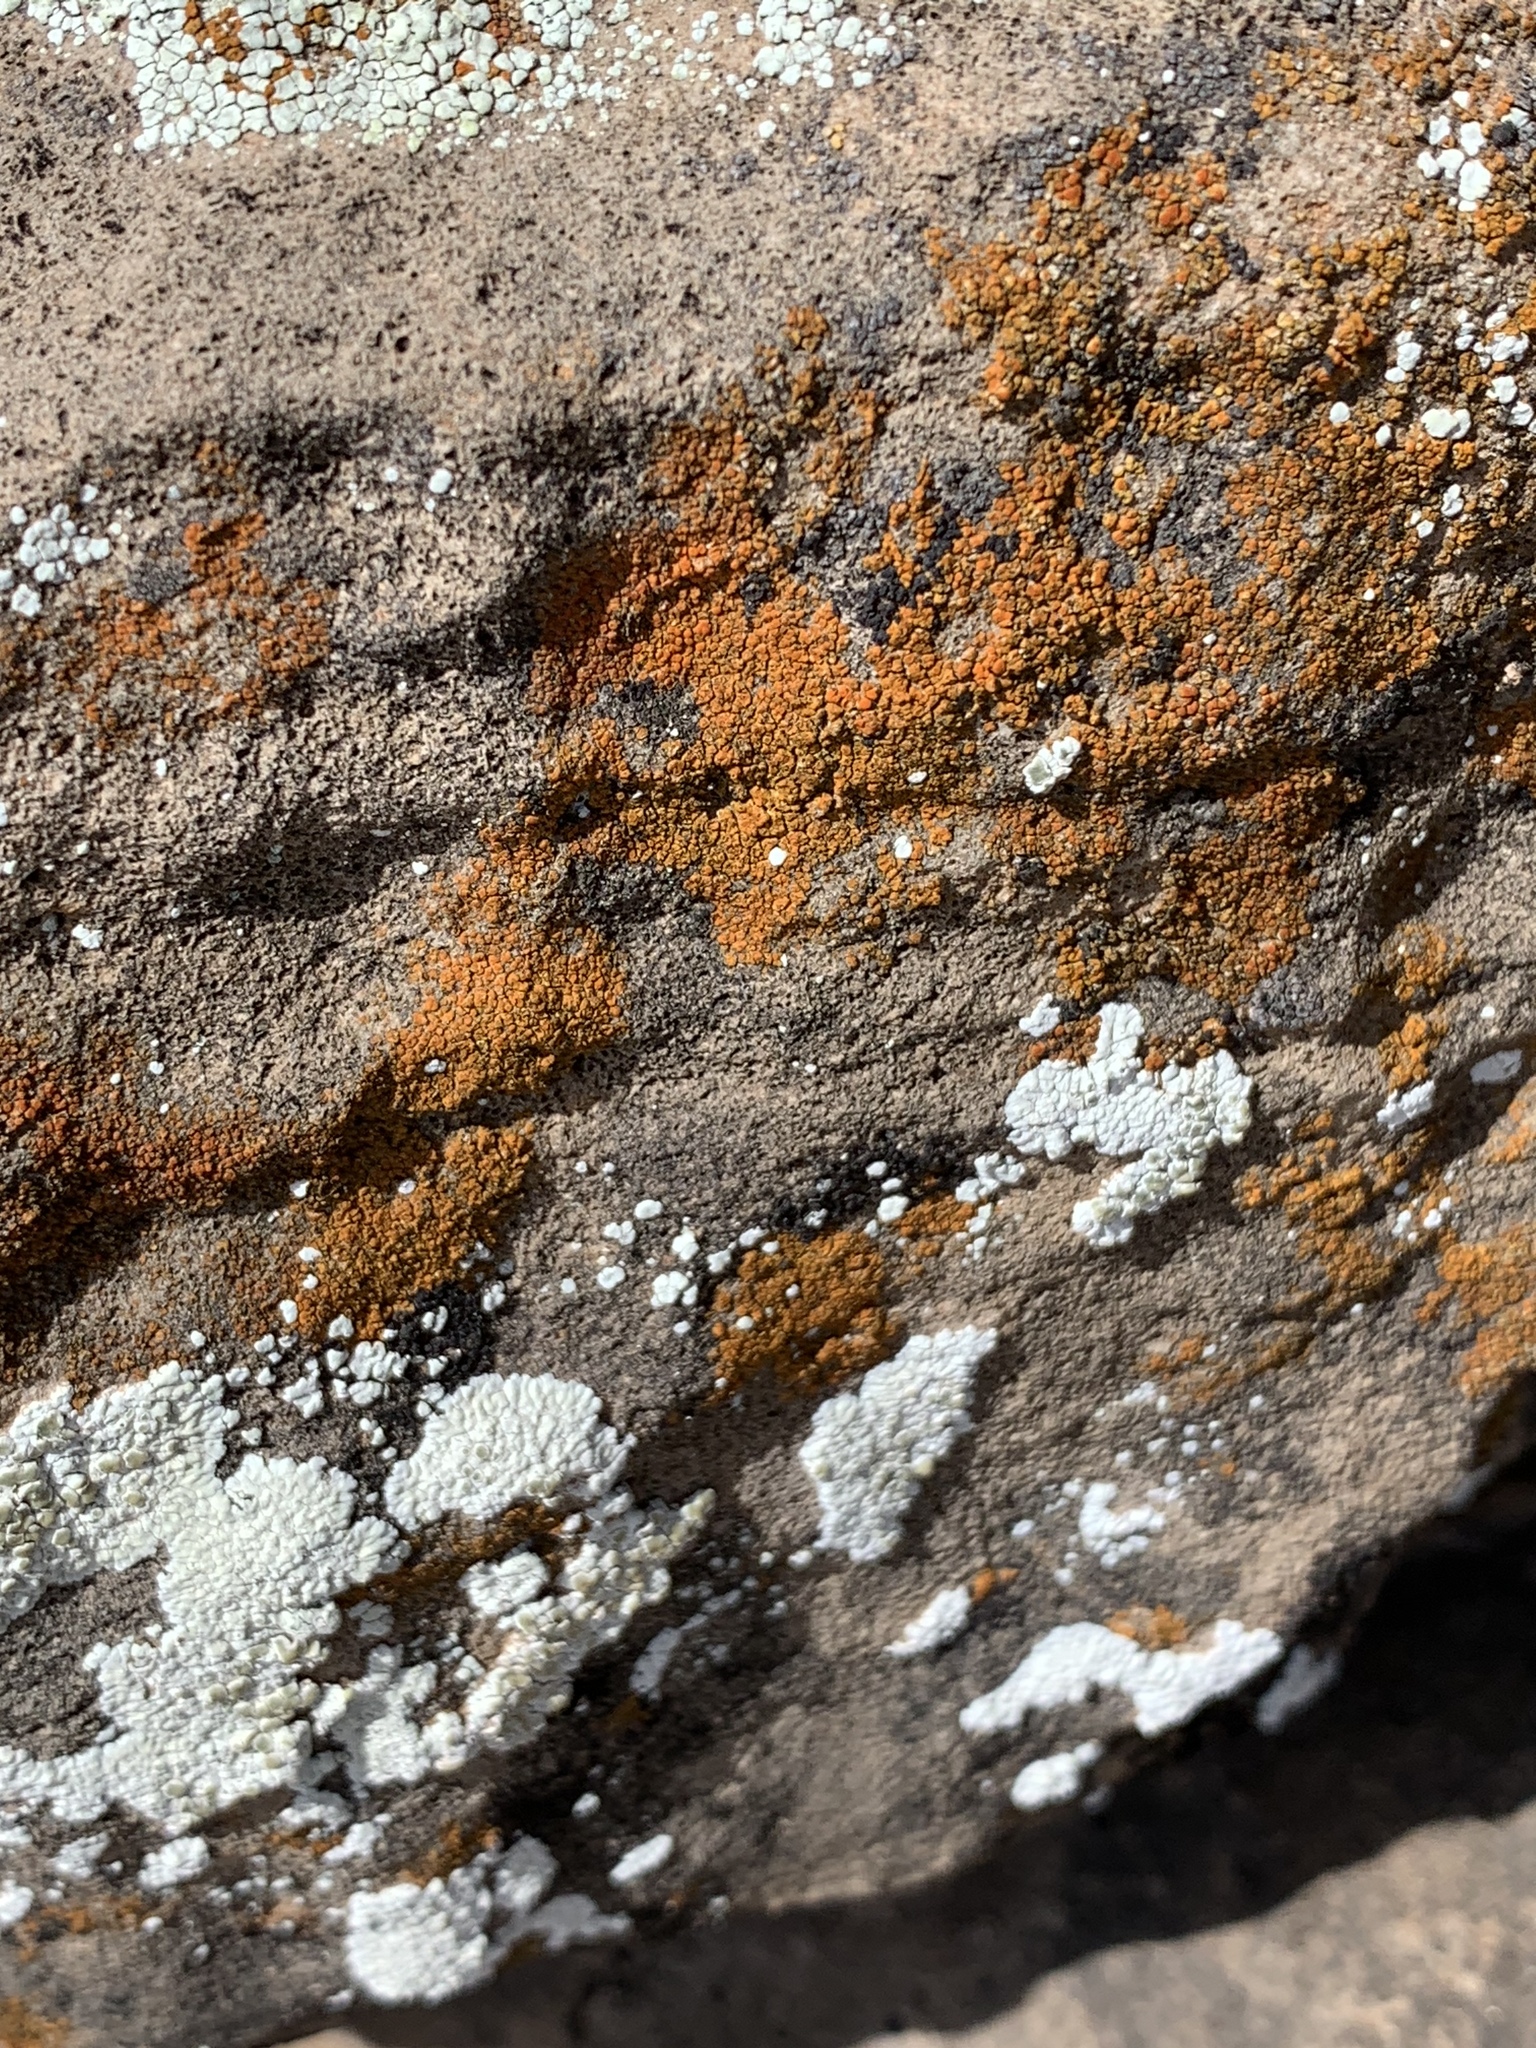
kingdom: Fungi
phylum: Ascomycota
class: Lecanoromycetes
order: Teloschistales
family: Teloschistaceae
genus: Squamulea
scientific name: Squamulea subsoluta
